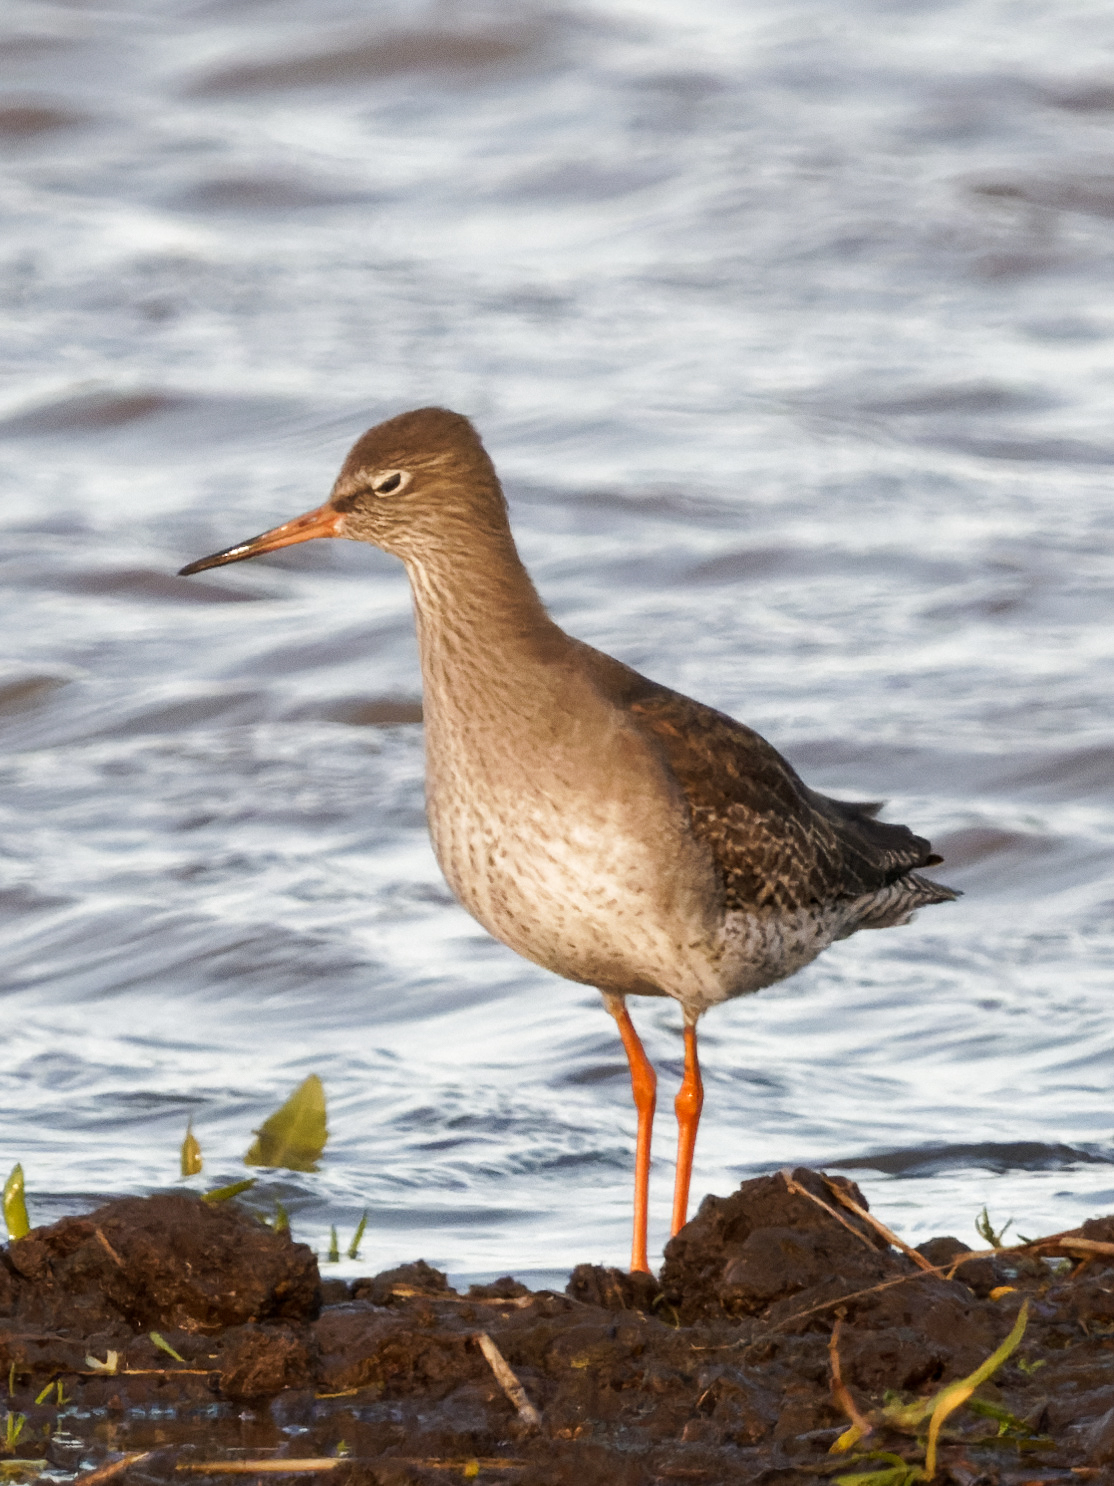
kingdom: Animalia
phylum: Chordata
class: Aves
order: Charadriiformes
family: Scolopacidae
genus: Tringa
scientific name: Tringa totanus
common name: Common redshank
